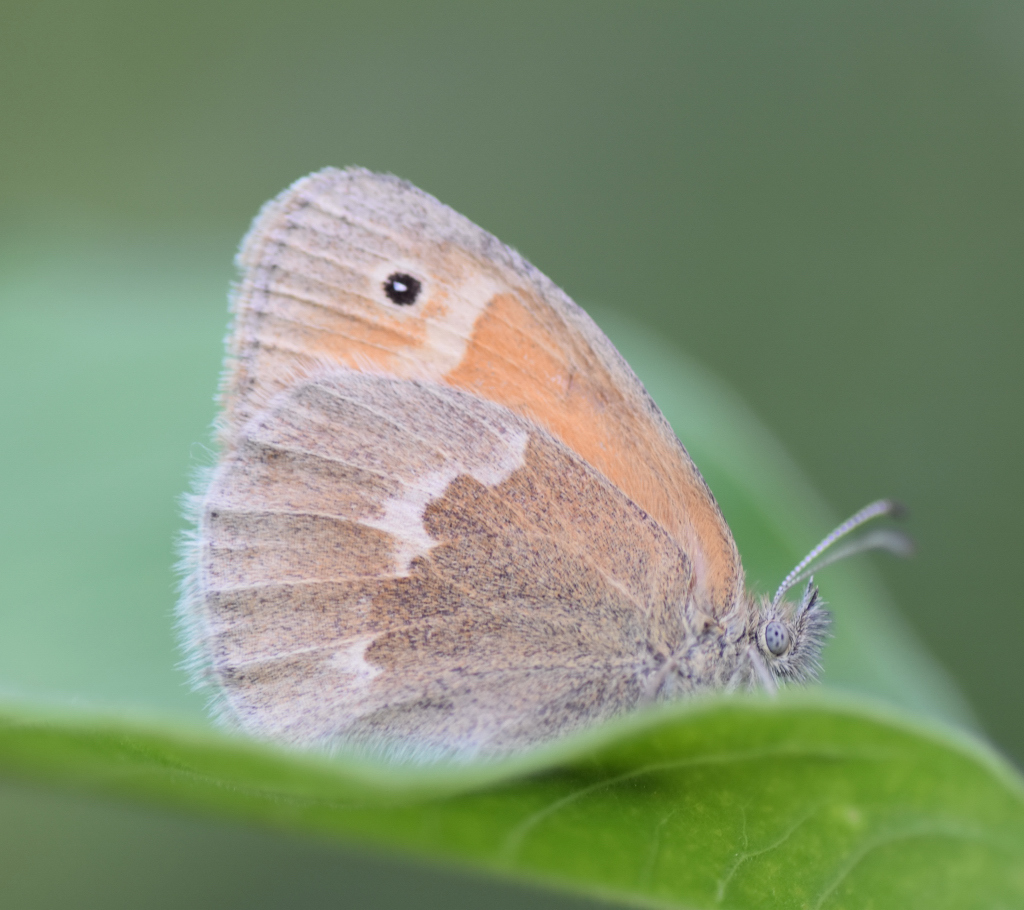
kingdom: Animalia
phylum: Arthropoda
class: Insecta
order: Lepidoptera
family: Nymphalidae
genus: Coenonympha
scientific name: Coenonympha california
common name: Common ringlet
